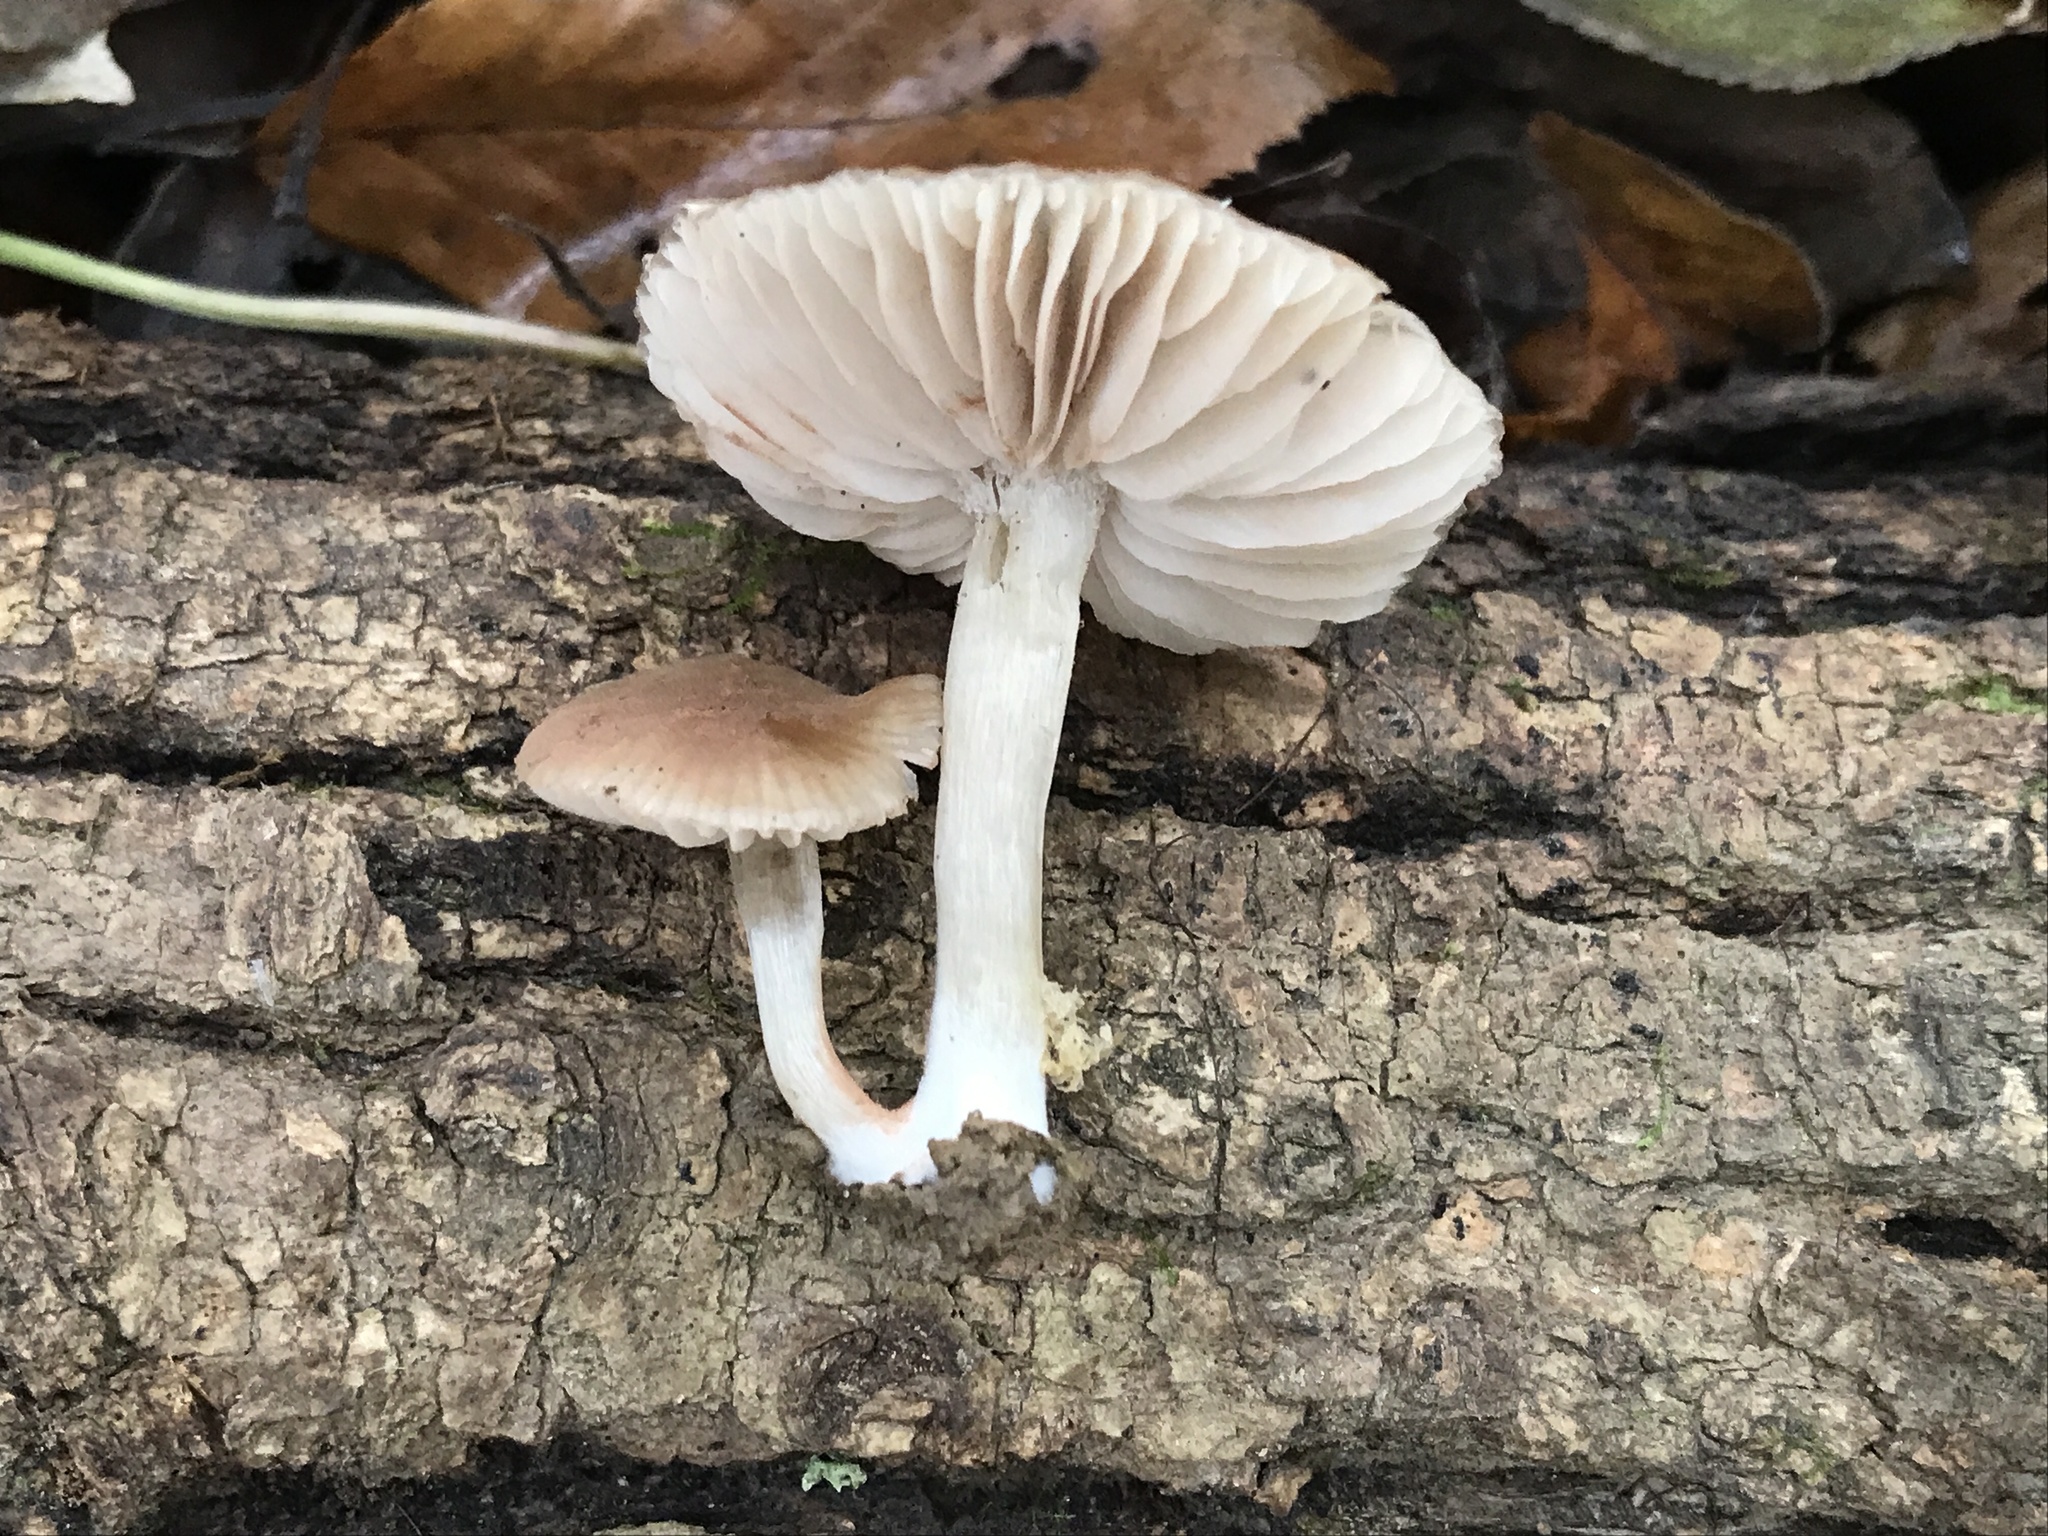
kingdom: Fungi
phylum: Basidiomycota
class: Agaricomycetes
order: Agaricales
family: Entolomataceae
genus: Entoloma
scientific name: Entoloma murinum
